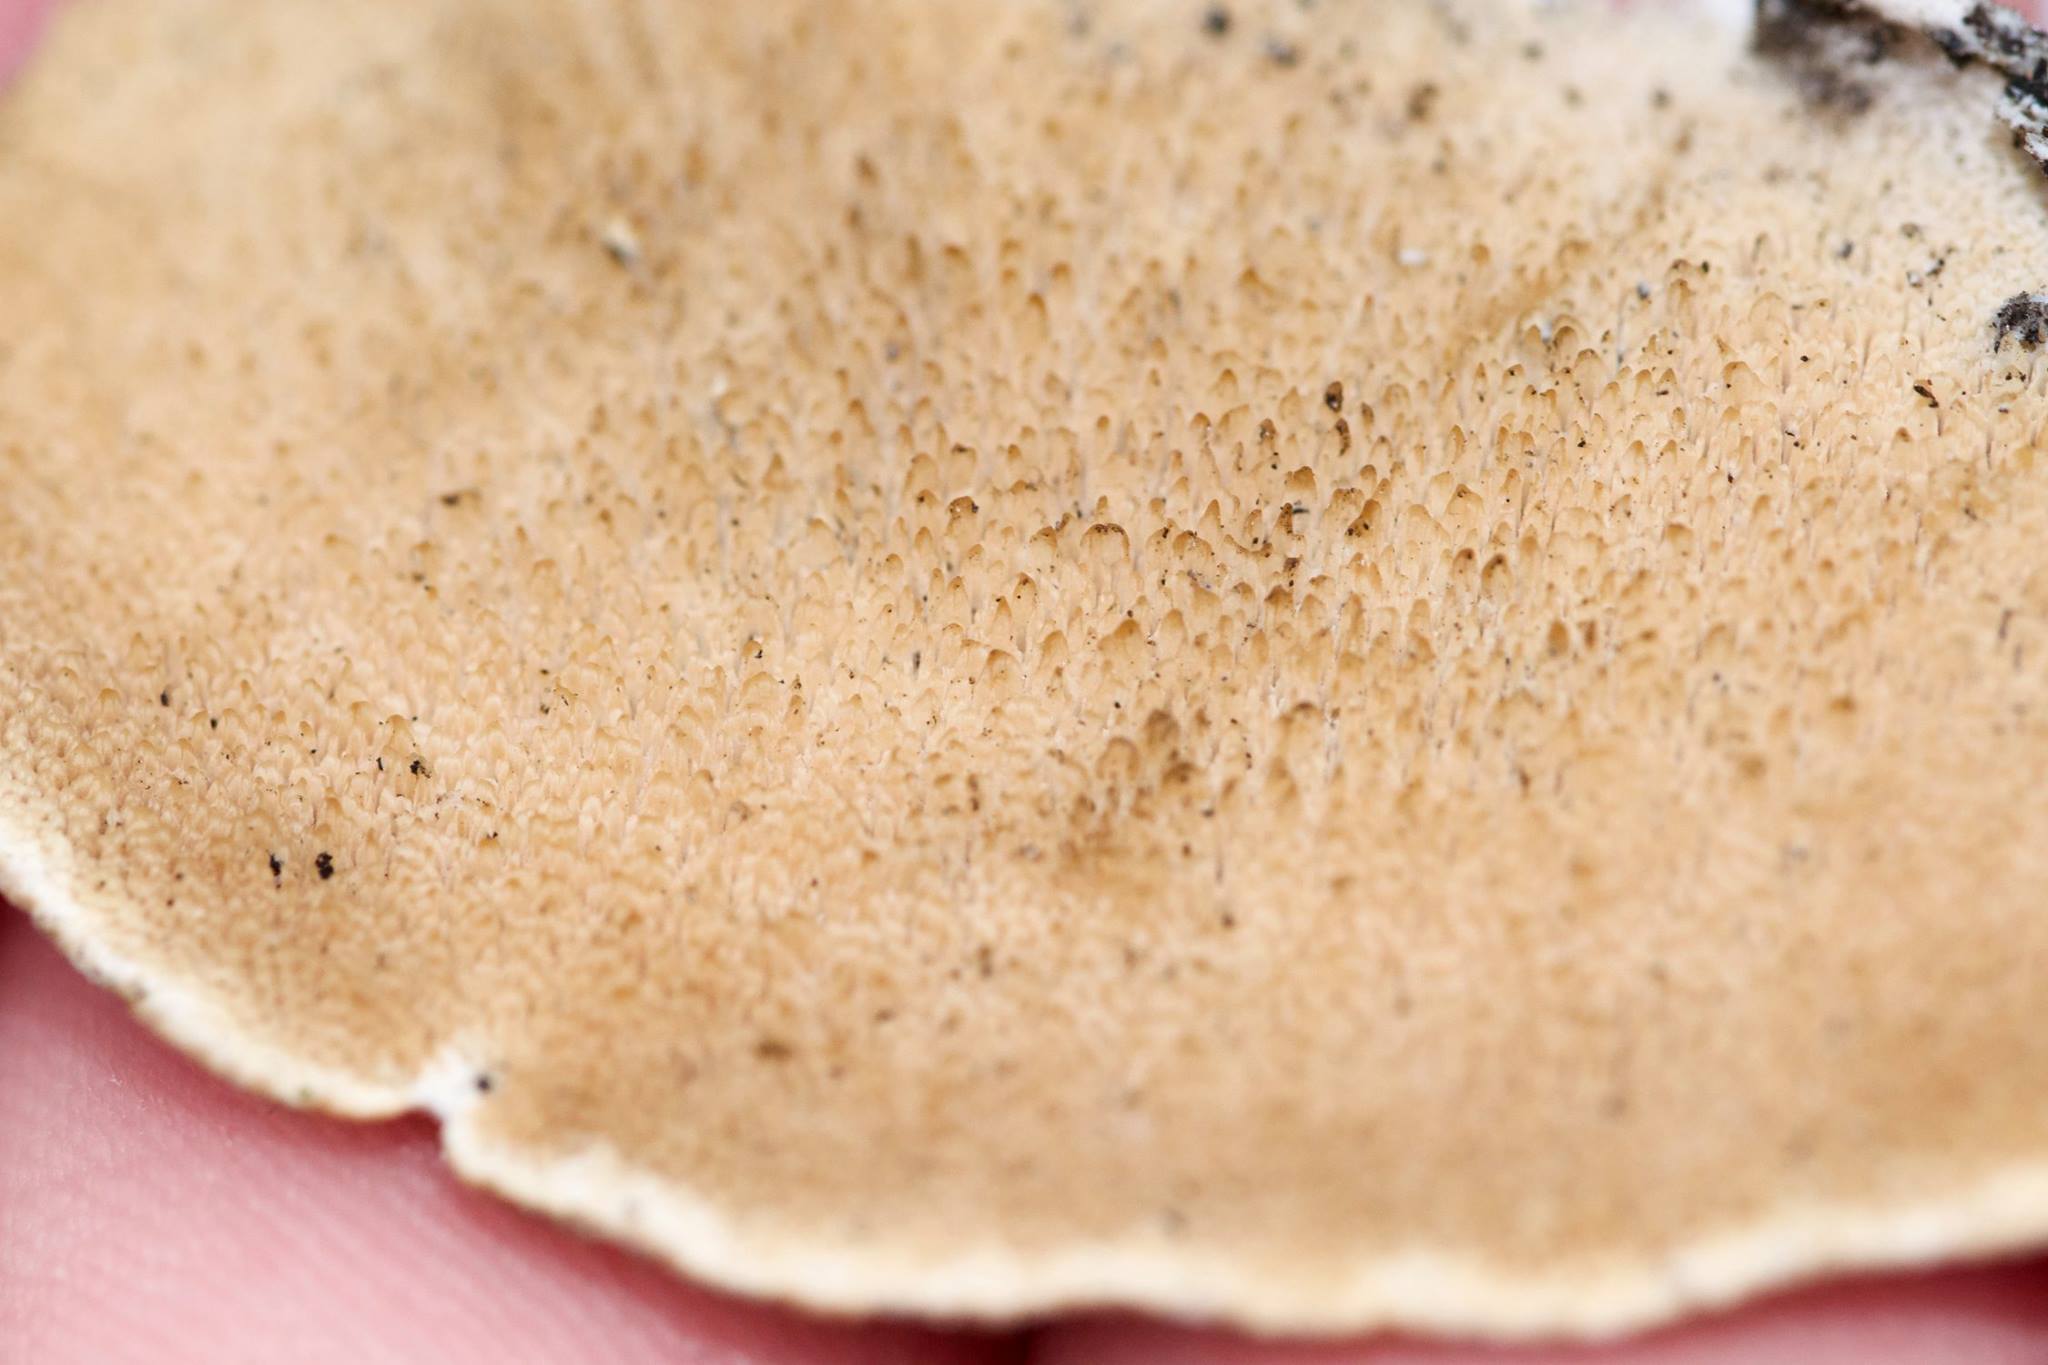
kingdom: Fungi
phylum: Basidiomycota
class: Agaricomycetes
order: Polyporales
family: Cerrenaceae
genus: Cerrena
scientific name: Cerrena unicolor
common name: Mossy maze polypore
